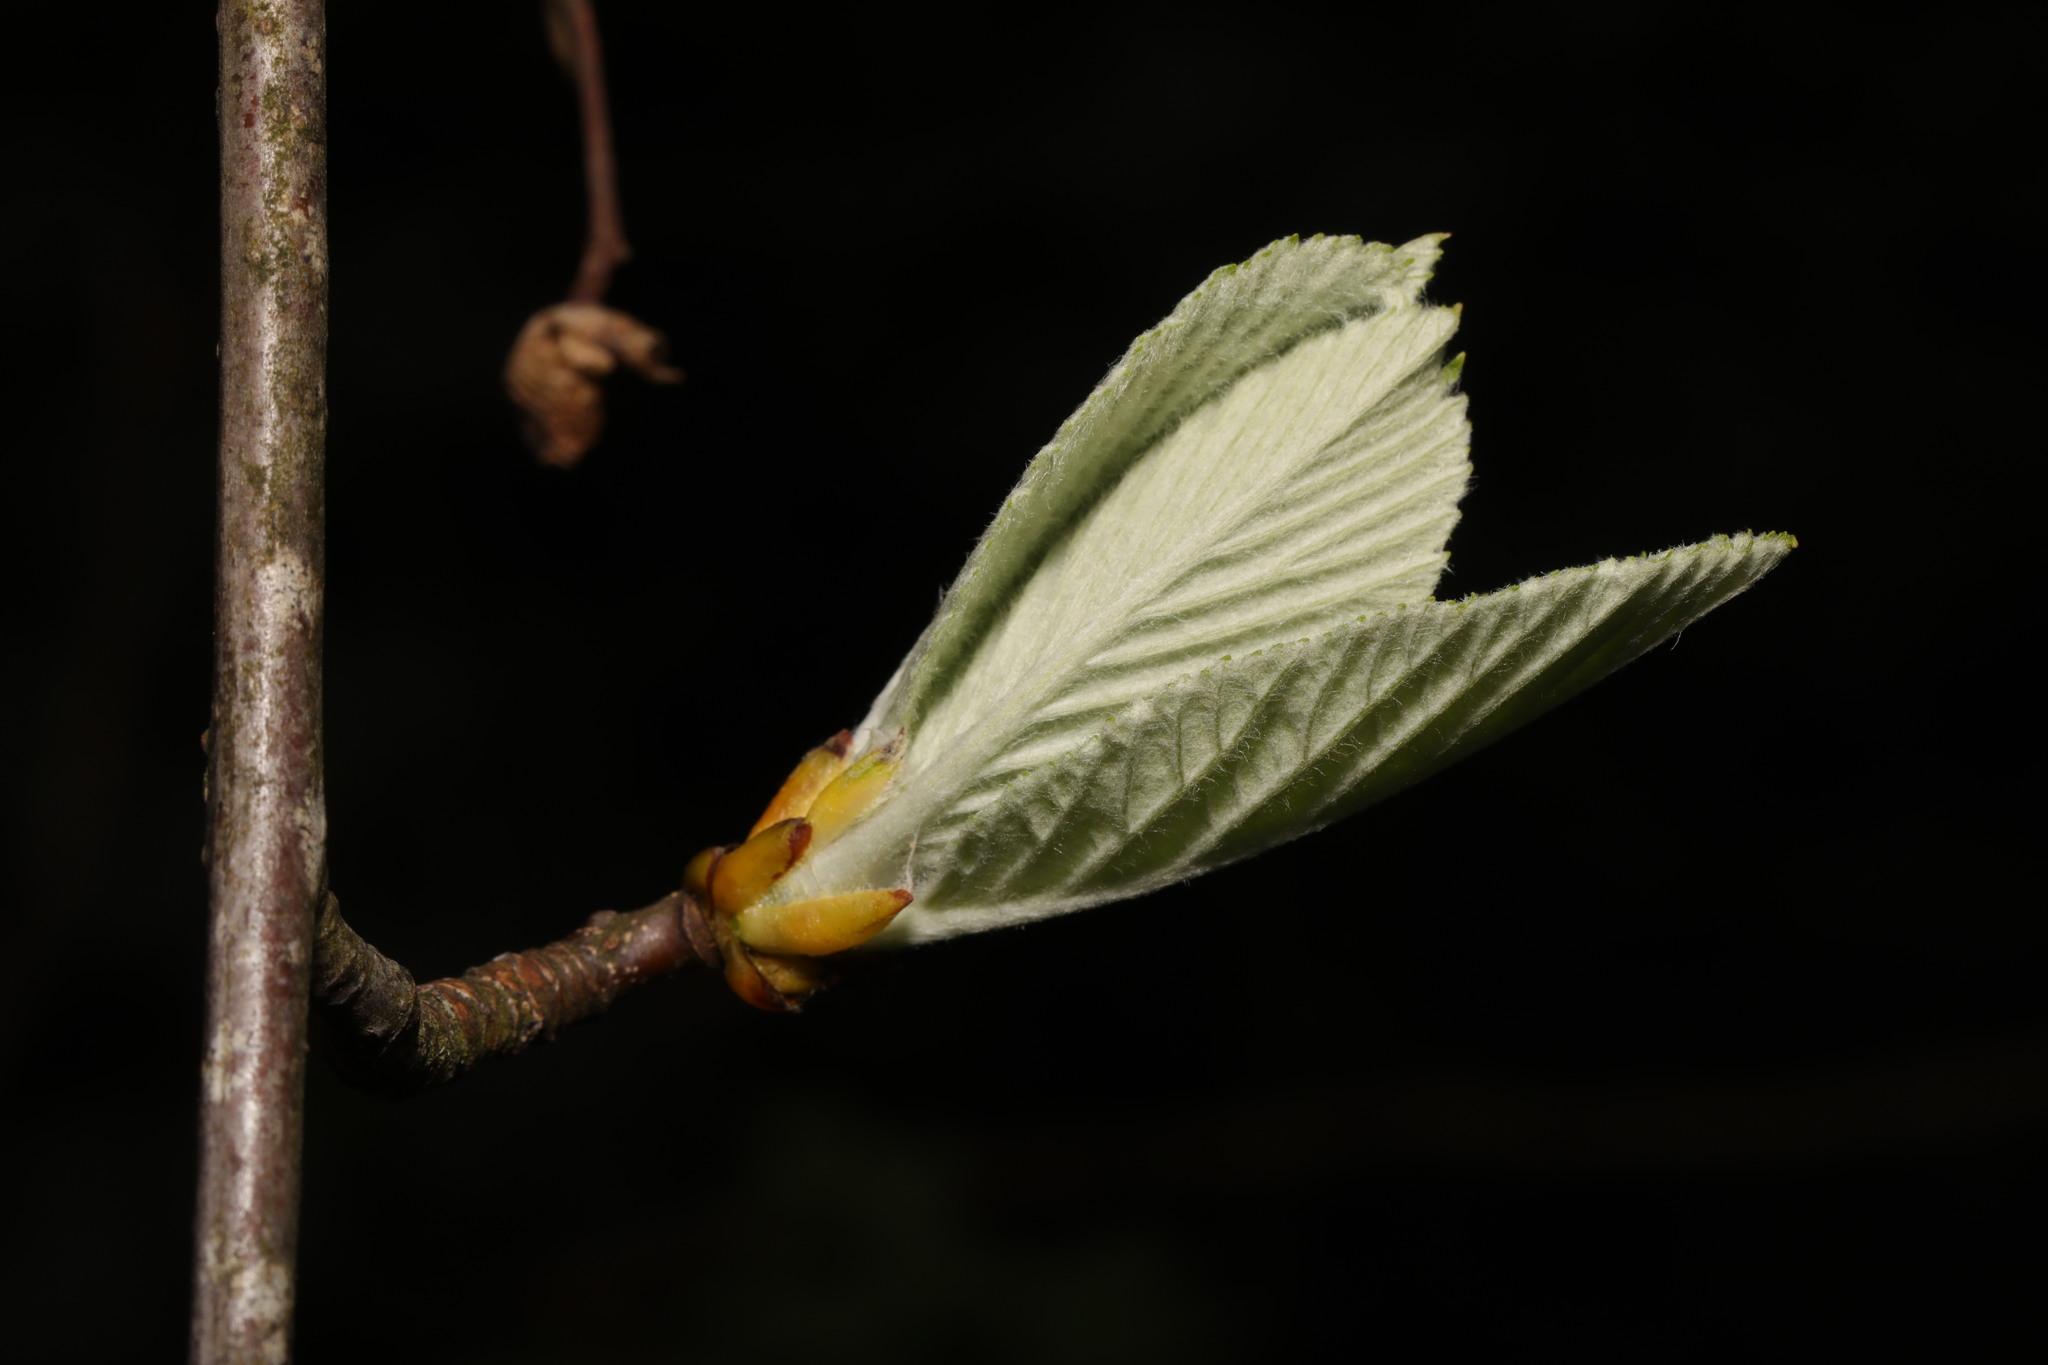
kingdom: Plantae
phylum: Tracheophyta
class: Magnoliopsida
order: Rosales
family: Rosaceae
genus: Aria
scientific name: Aria edulis
